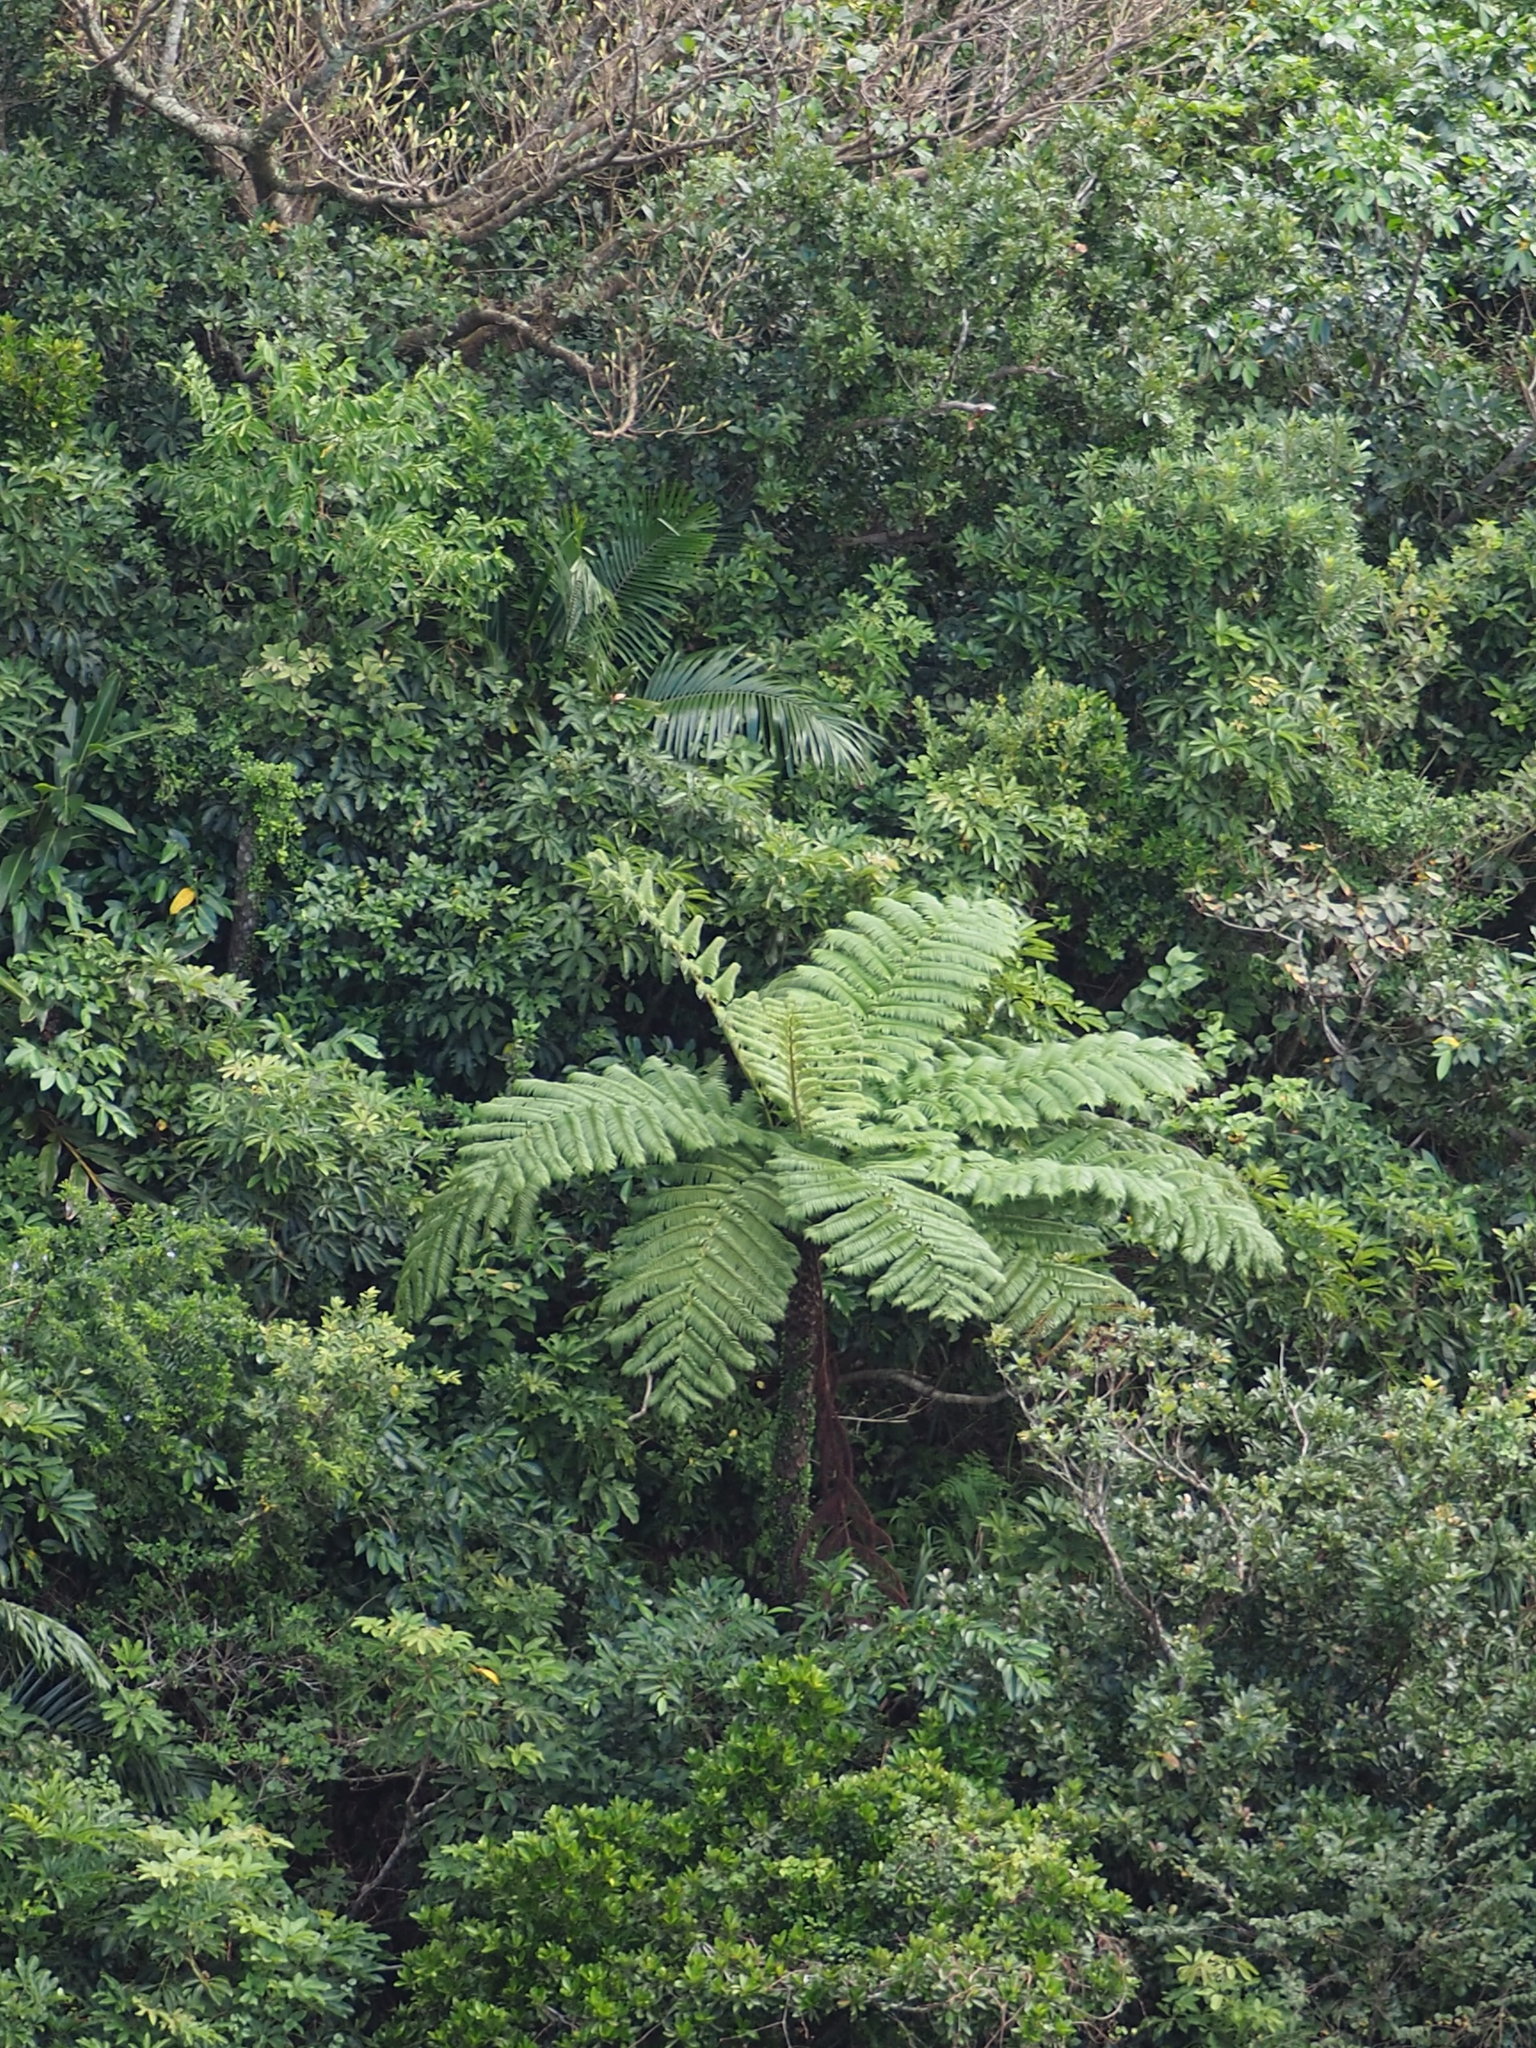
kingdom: Plantae
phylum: Tracheophyta
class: Polypodiopsida
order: Cyatheales
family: Cyatheaceae
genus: Alsophila
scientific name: Alsophila lepifera
